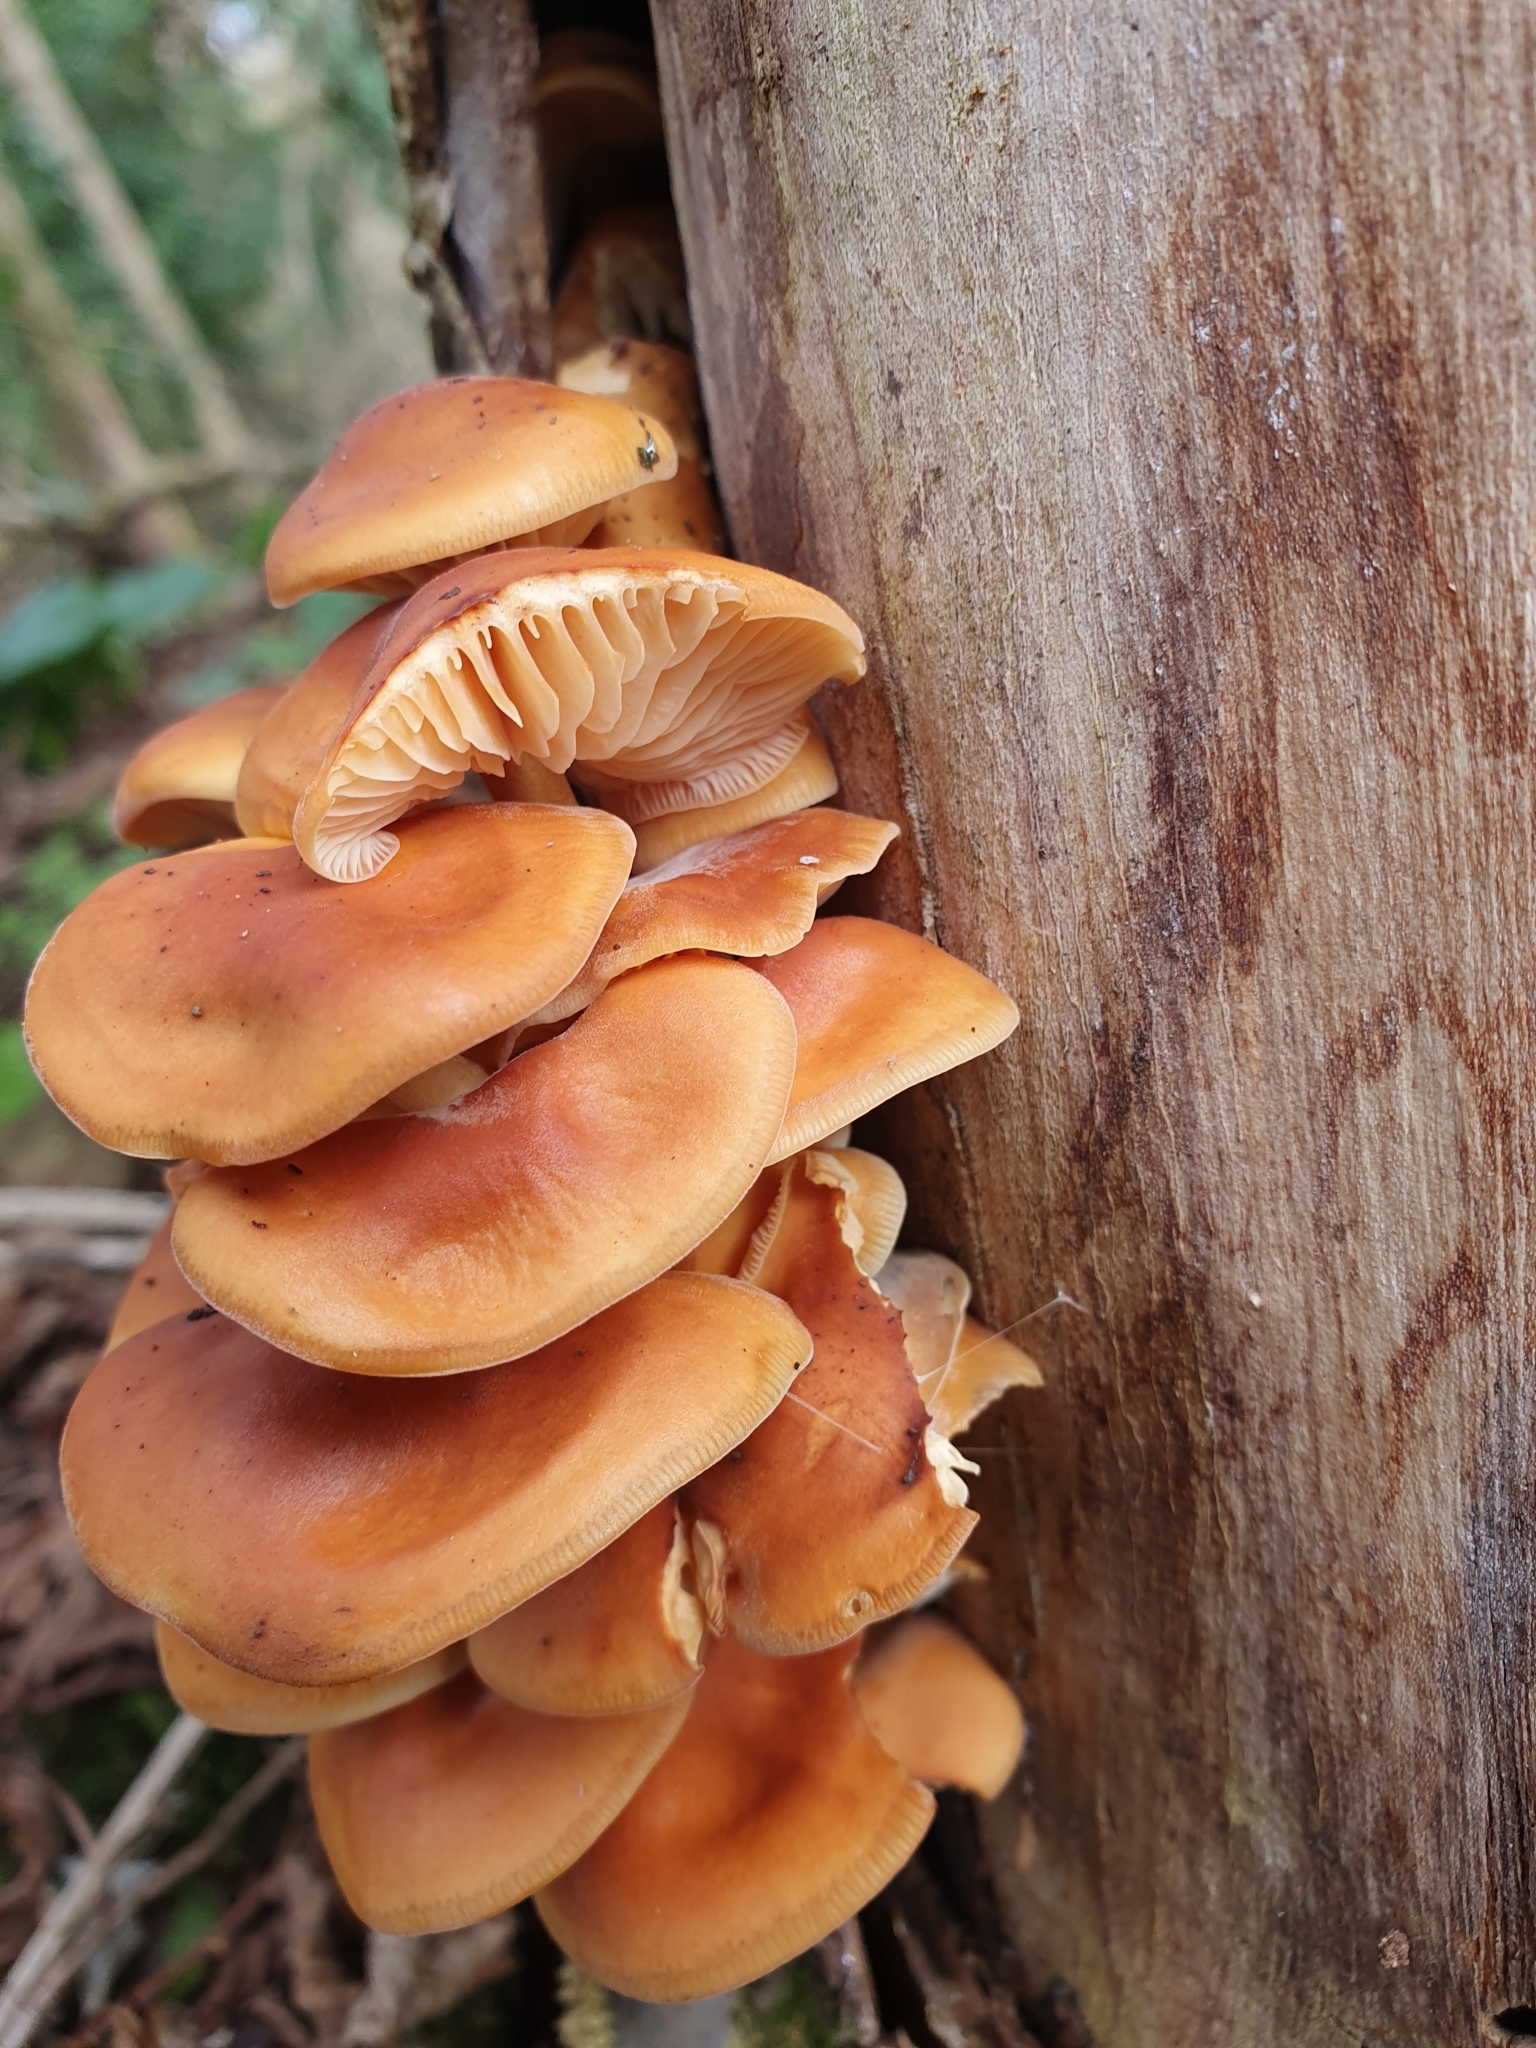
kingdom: Fungi
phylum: Basidiomycota
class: Agaricomycetes
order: Agaricales
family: Physalacriaceae
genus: Flammulina
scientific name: Flammulina
